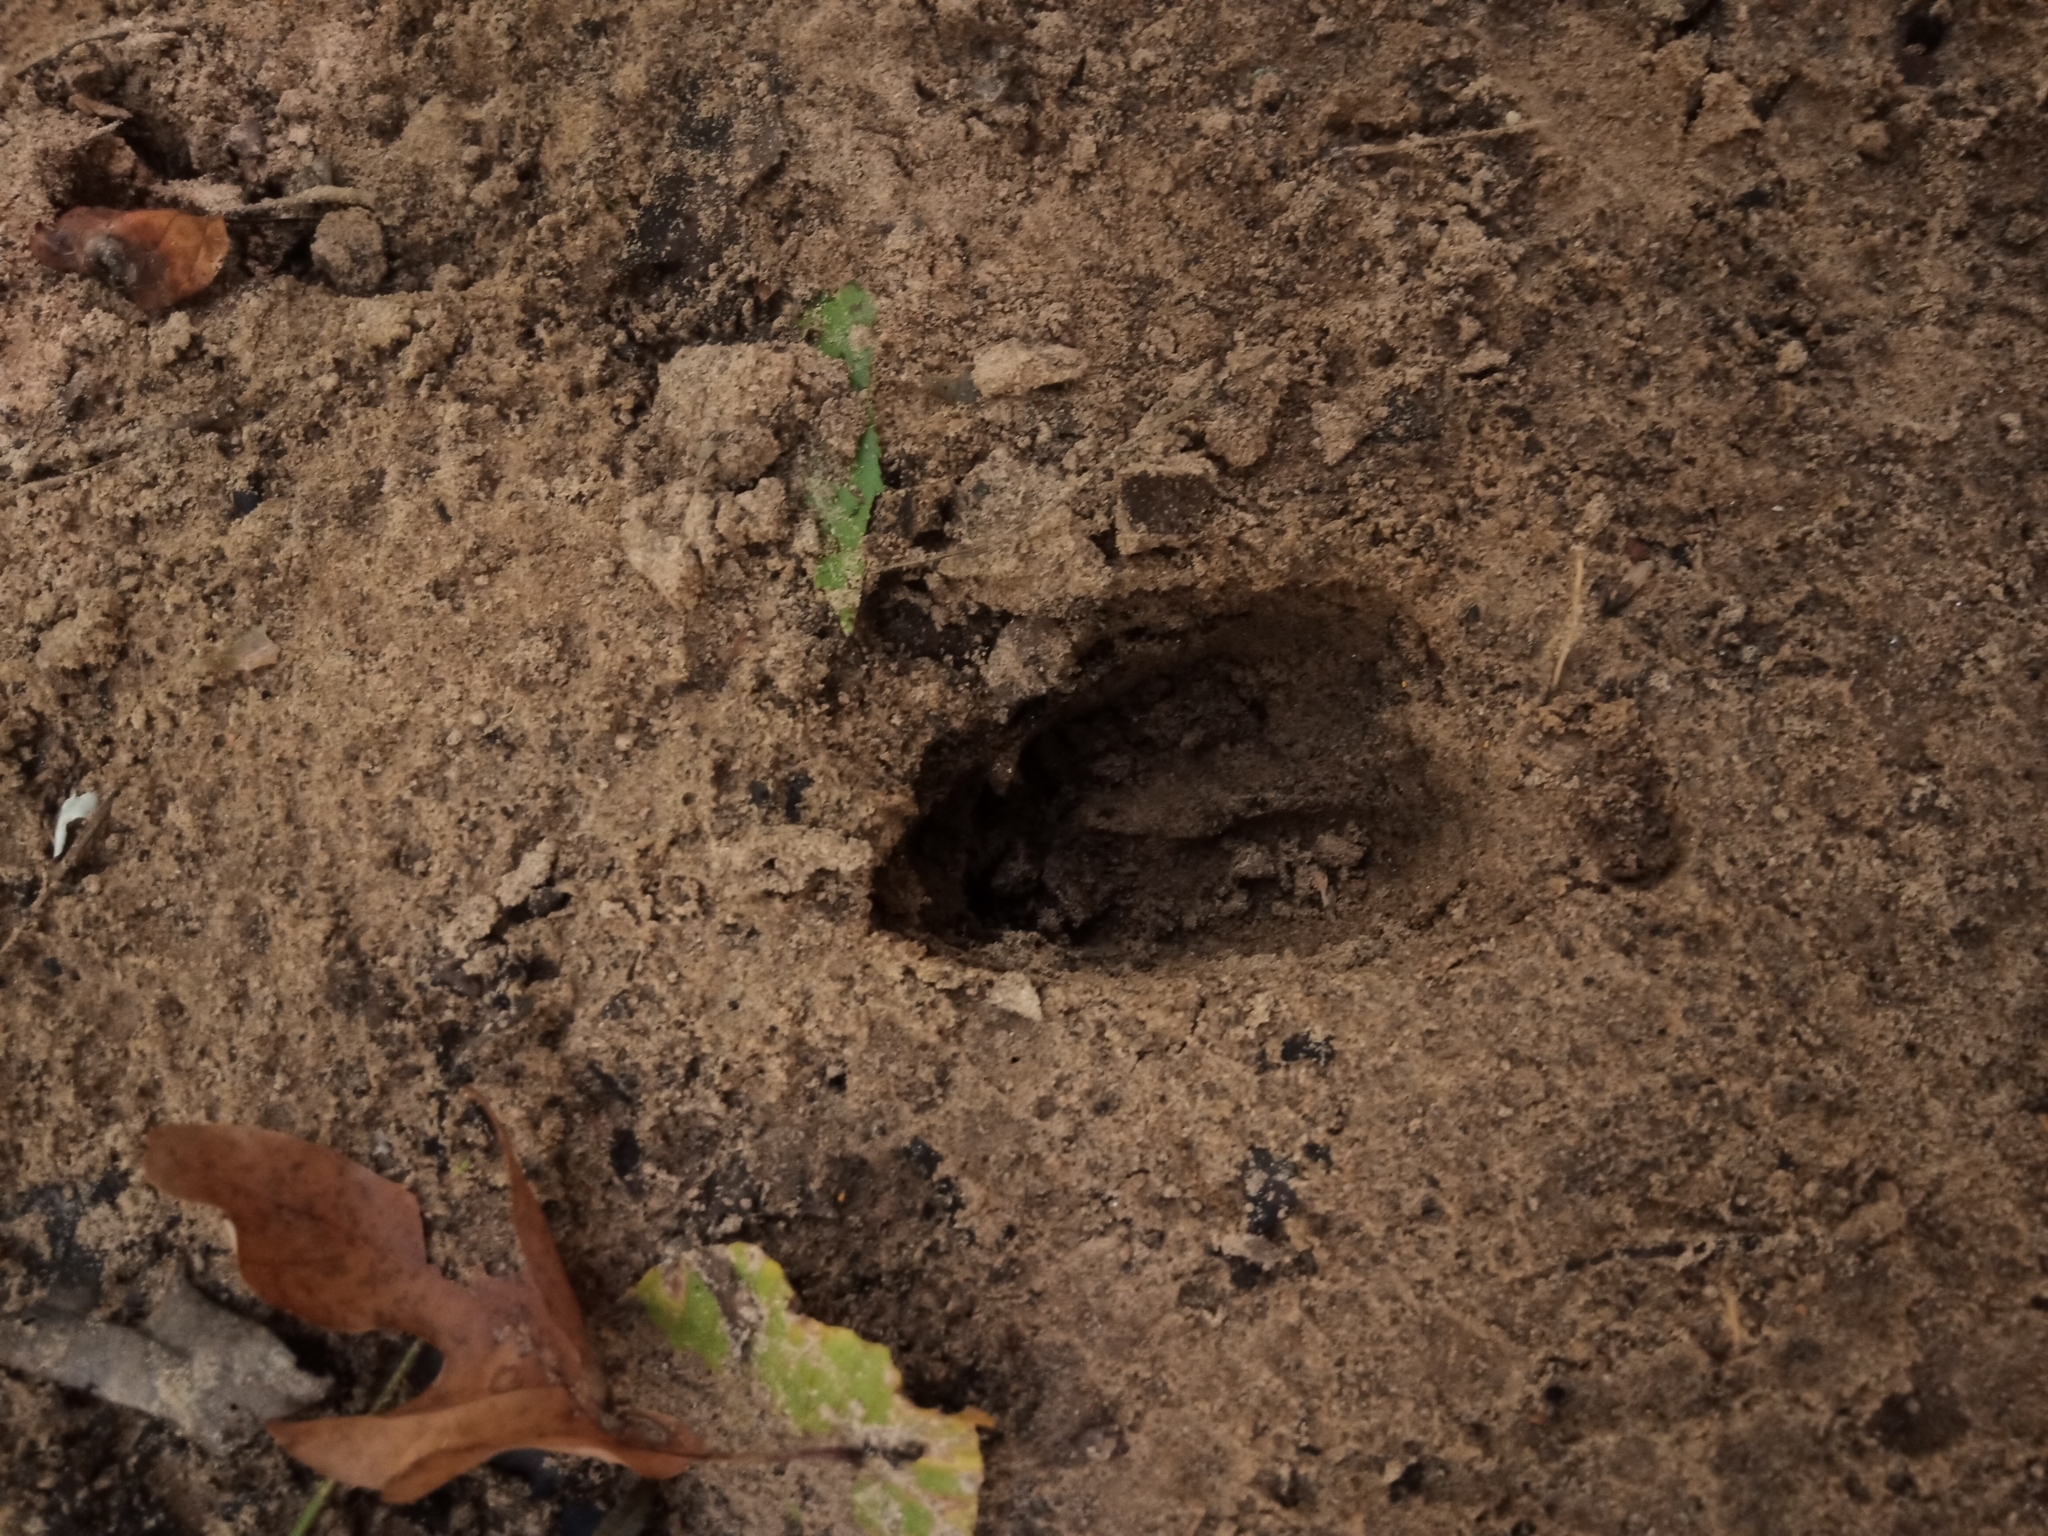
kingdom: Animalia
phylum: Chordata
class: Mammalia
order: Artiodactyla
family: Cervidae
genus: Odocoileus
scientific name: Odocoileus virginianus
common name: White-tailed deer
